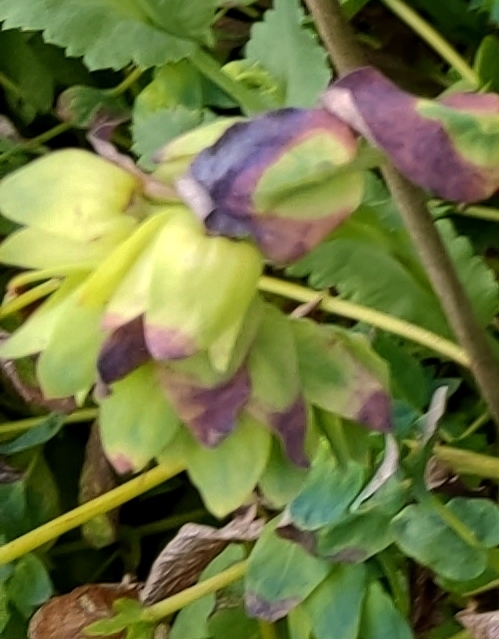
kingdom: Plantae
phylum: Tracheophyta
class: Magnoliopsida
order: Boraginales
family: Boraginaceae
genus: Cerinthe
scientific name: Cerinthe major
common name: Greater honeywort
